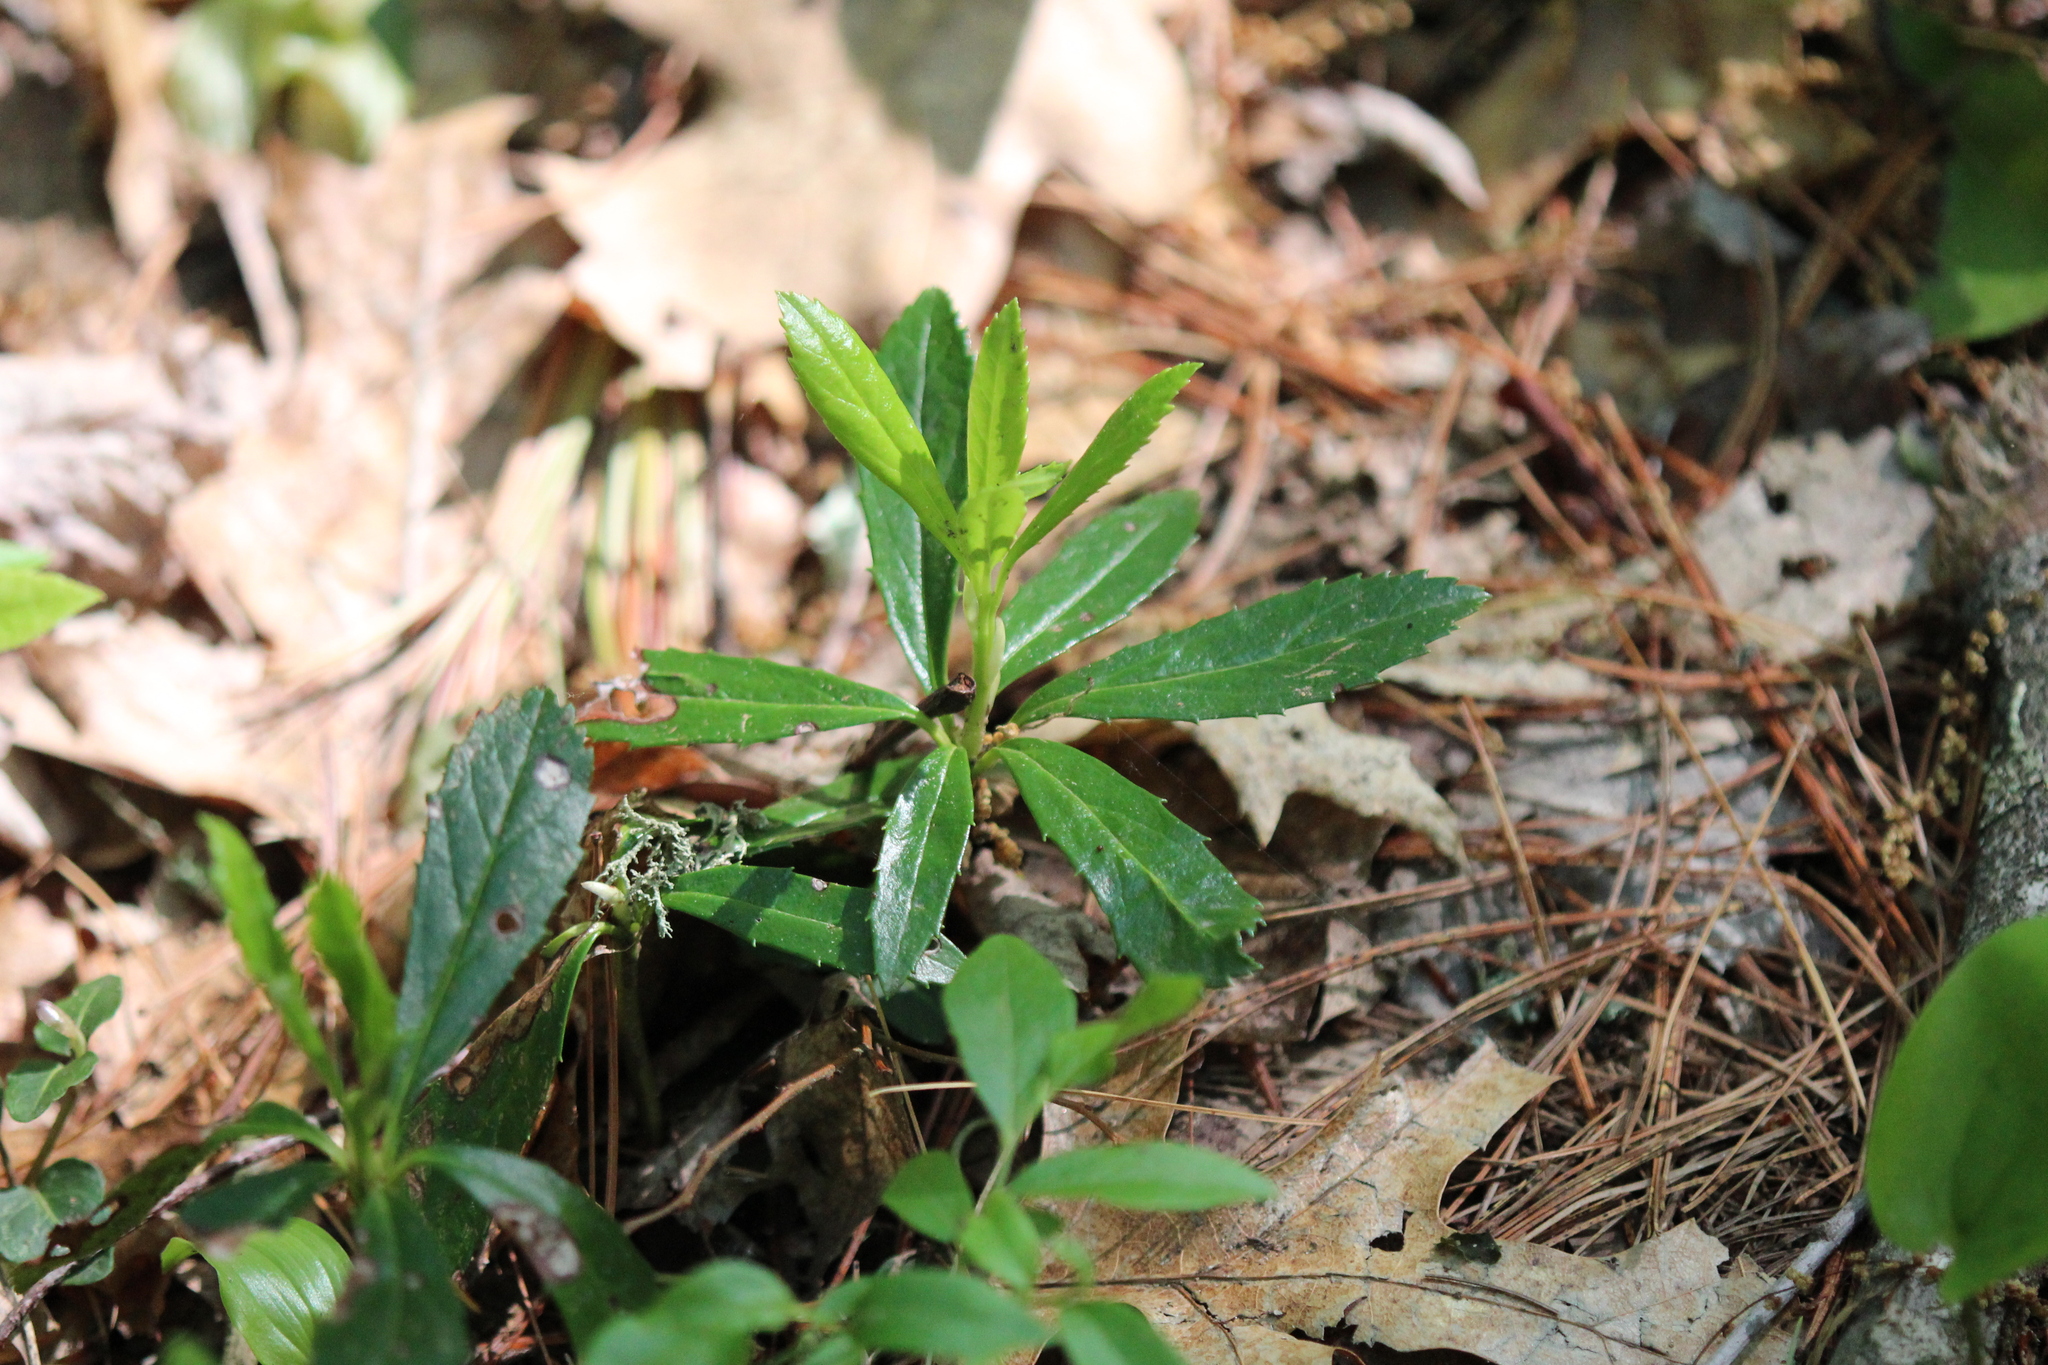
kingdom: Plantae
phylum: Tracheophyta
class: Magnoliopsida
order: Ericales
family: Ericaceae
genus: Chimaphila
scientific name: Chimaphila umbellata
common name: Pipsissewa
